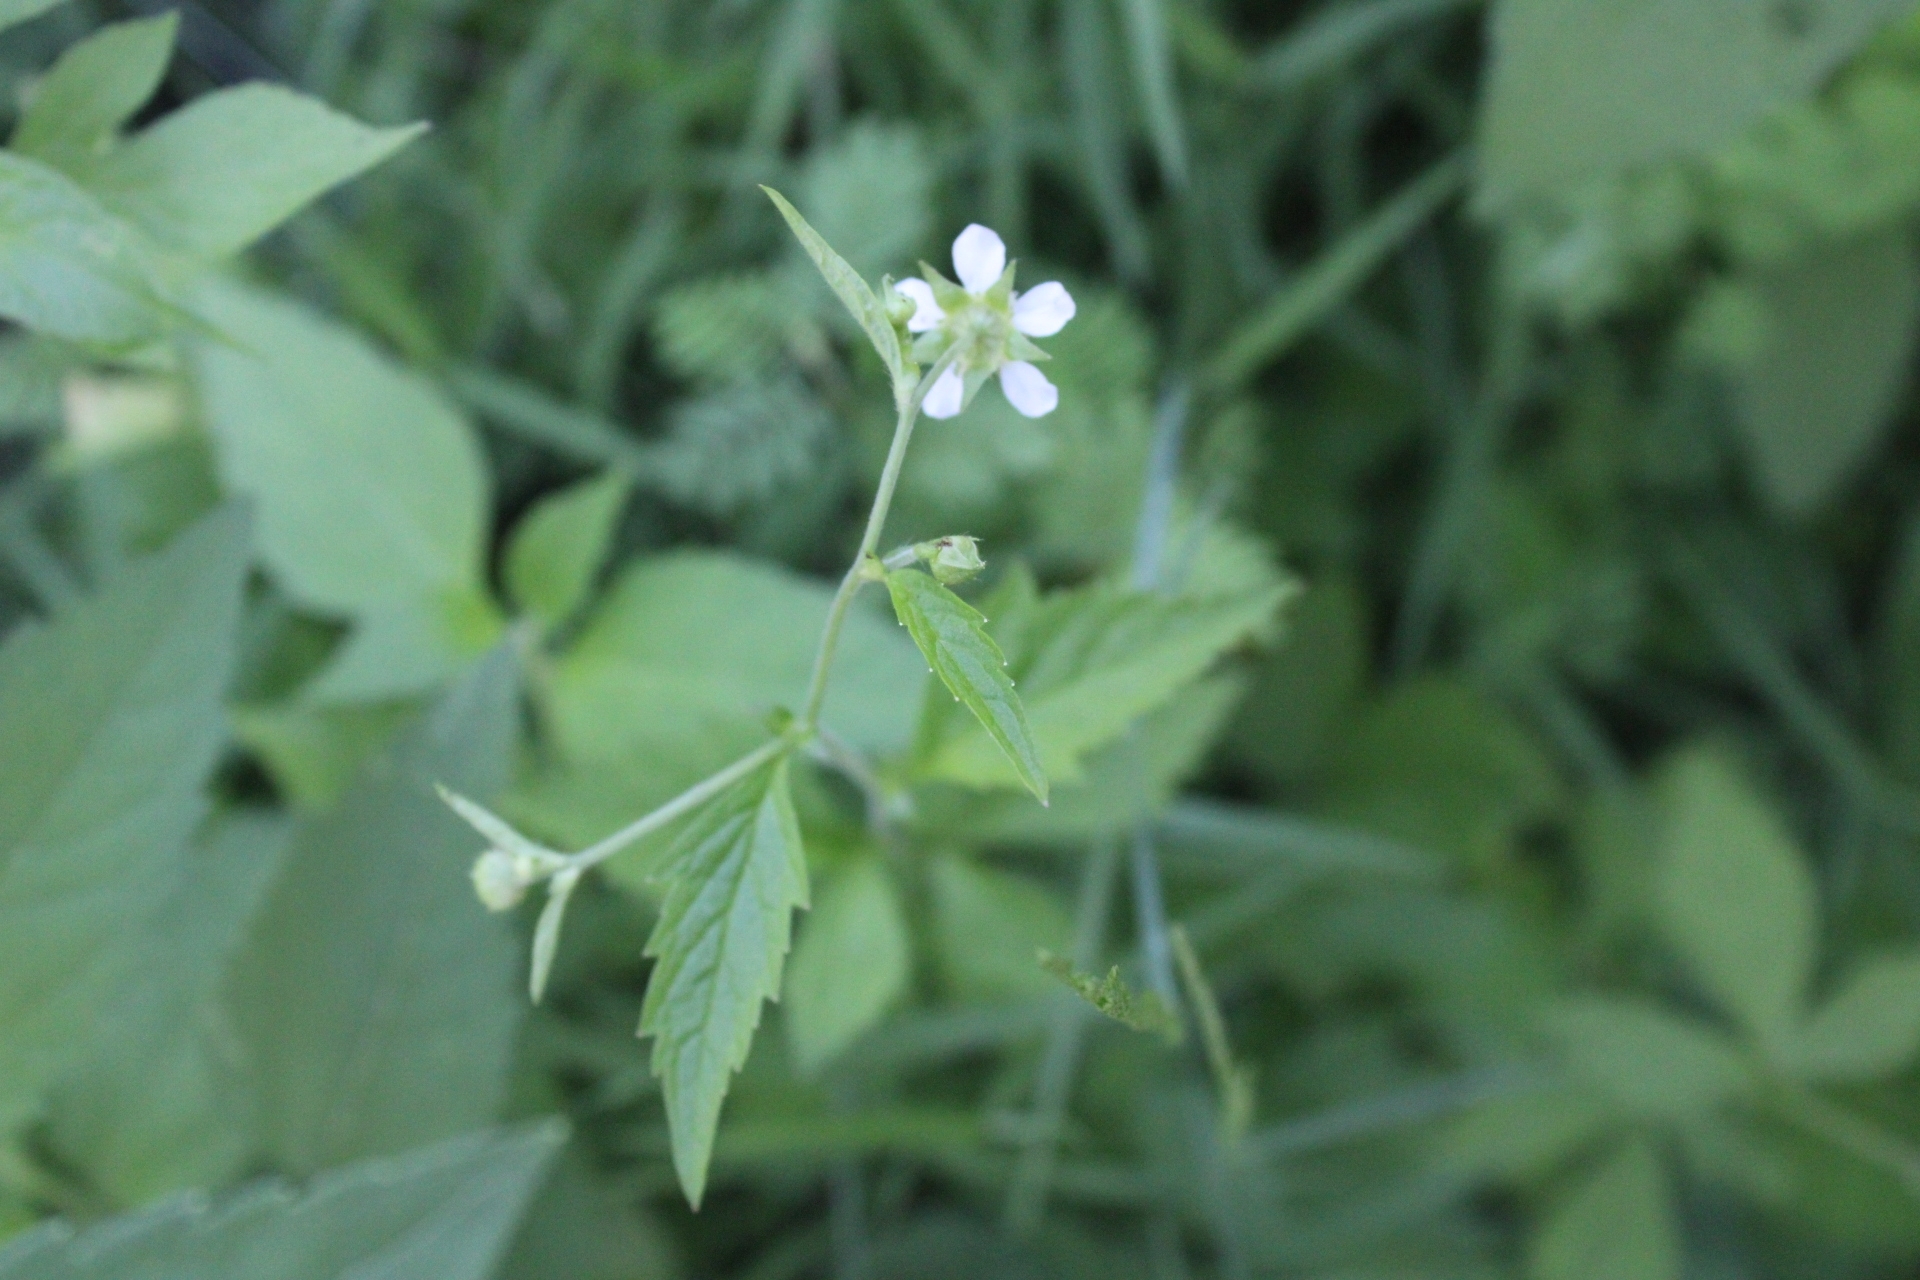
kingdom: Plantae
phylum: Tracheophyta
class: Magnoliopsida
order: Rosales
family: Rosaceae
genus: Geum
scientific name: Geum canadense
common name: White avens
